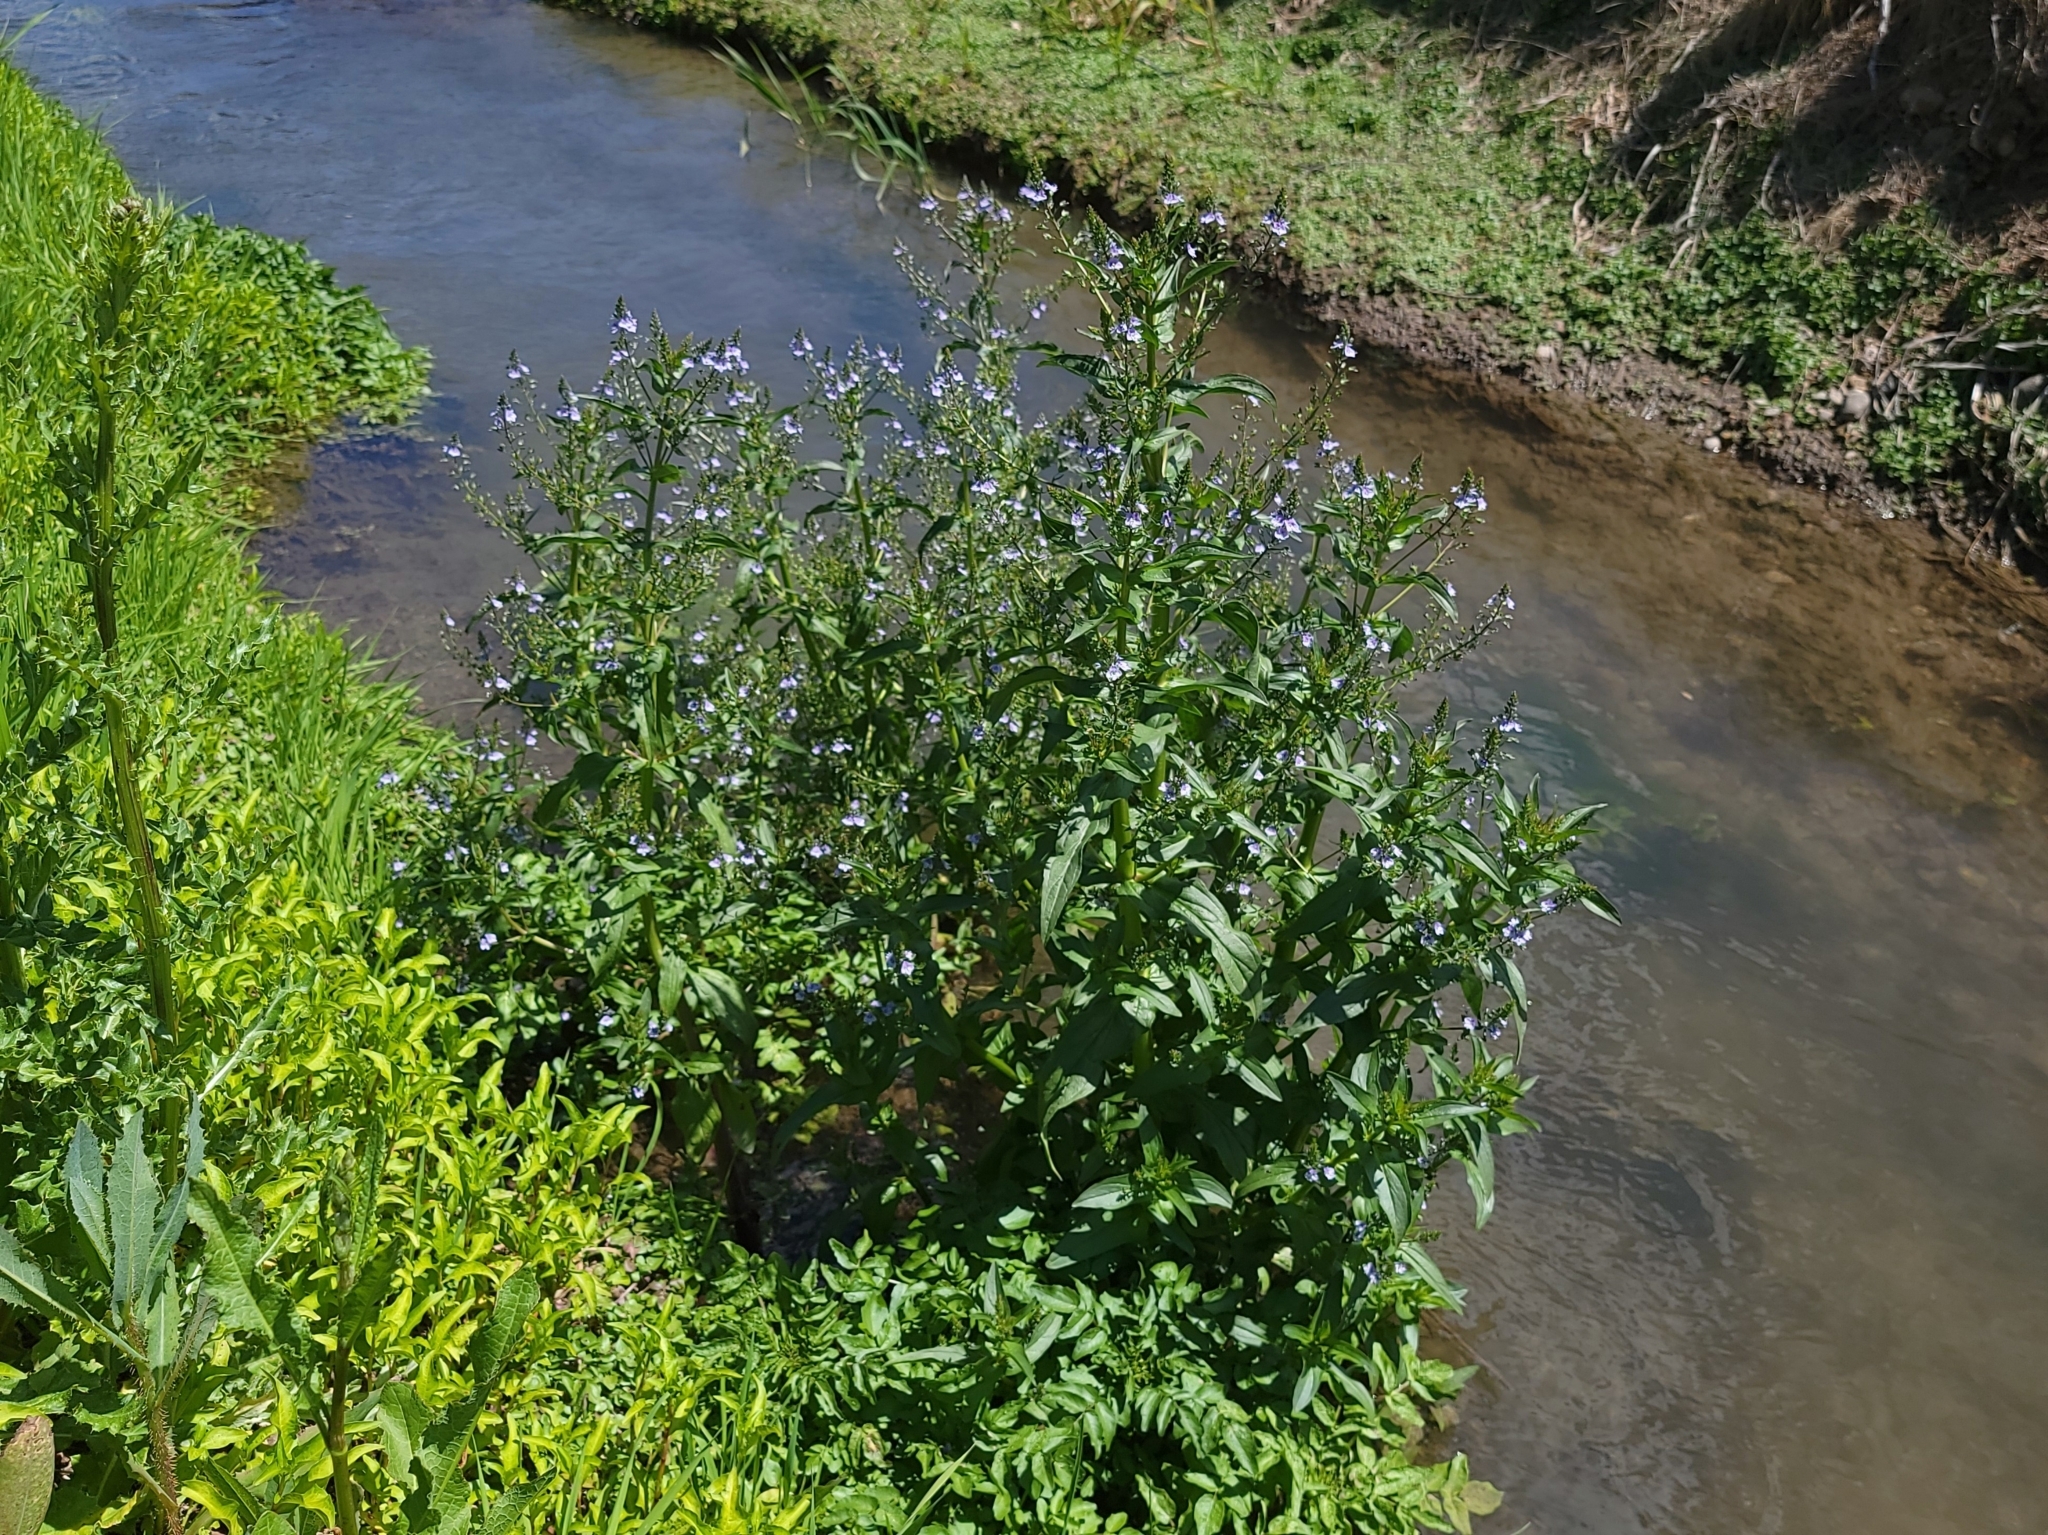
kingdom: Plantae
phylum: Tracheophyta
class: Magnoliopsida
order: Lamiales
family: Plantaginaceae
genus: Veronica
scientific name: Veronica anagallis-aquatica
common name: Water speedwell
